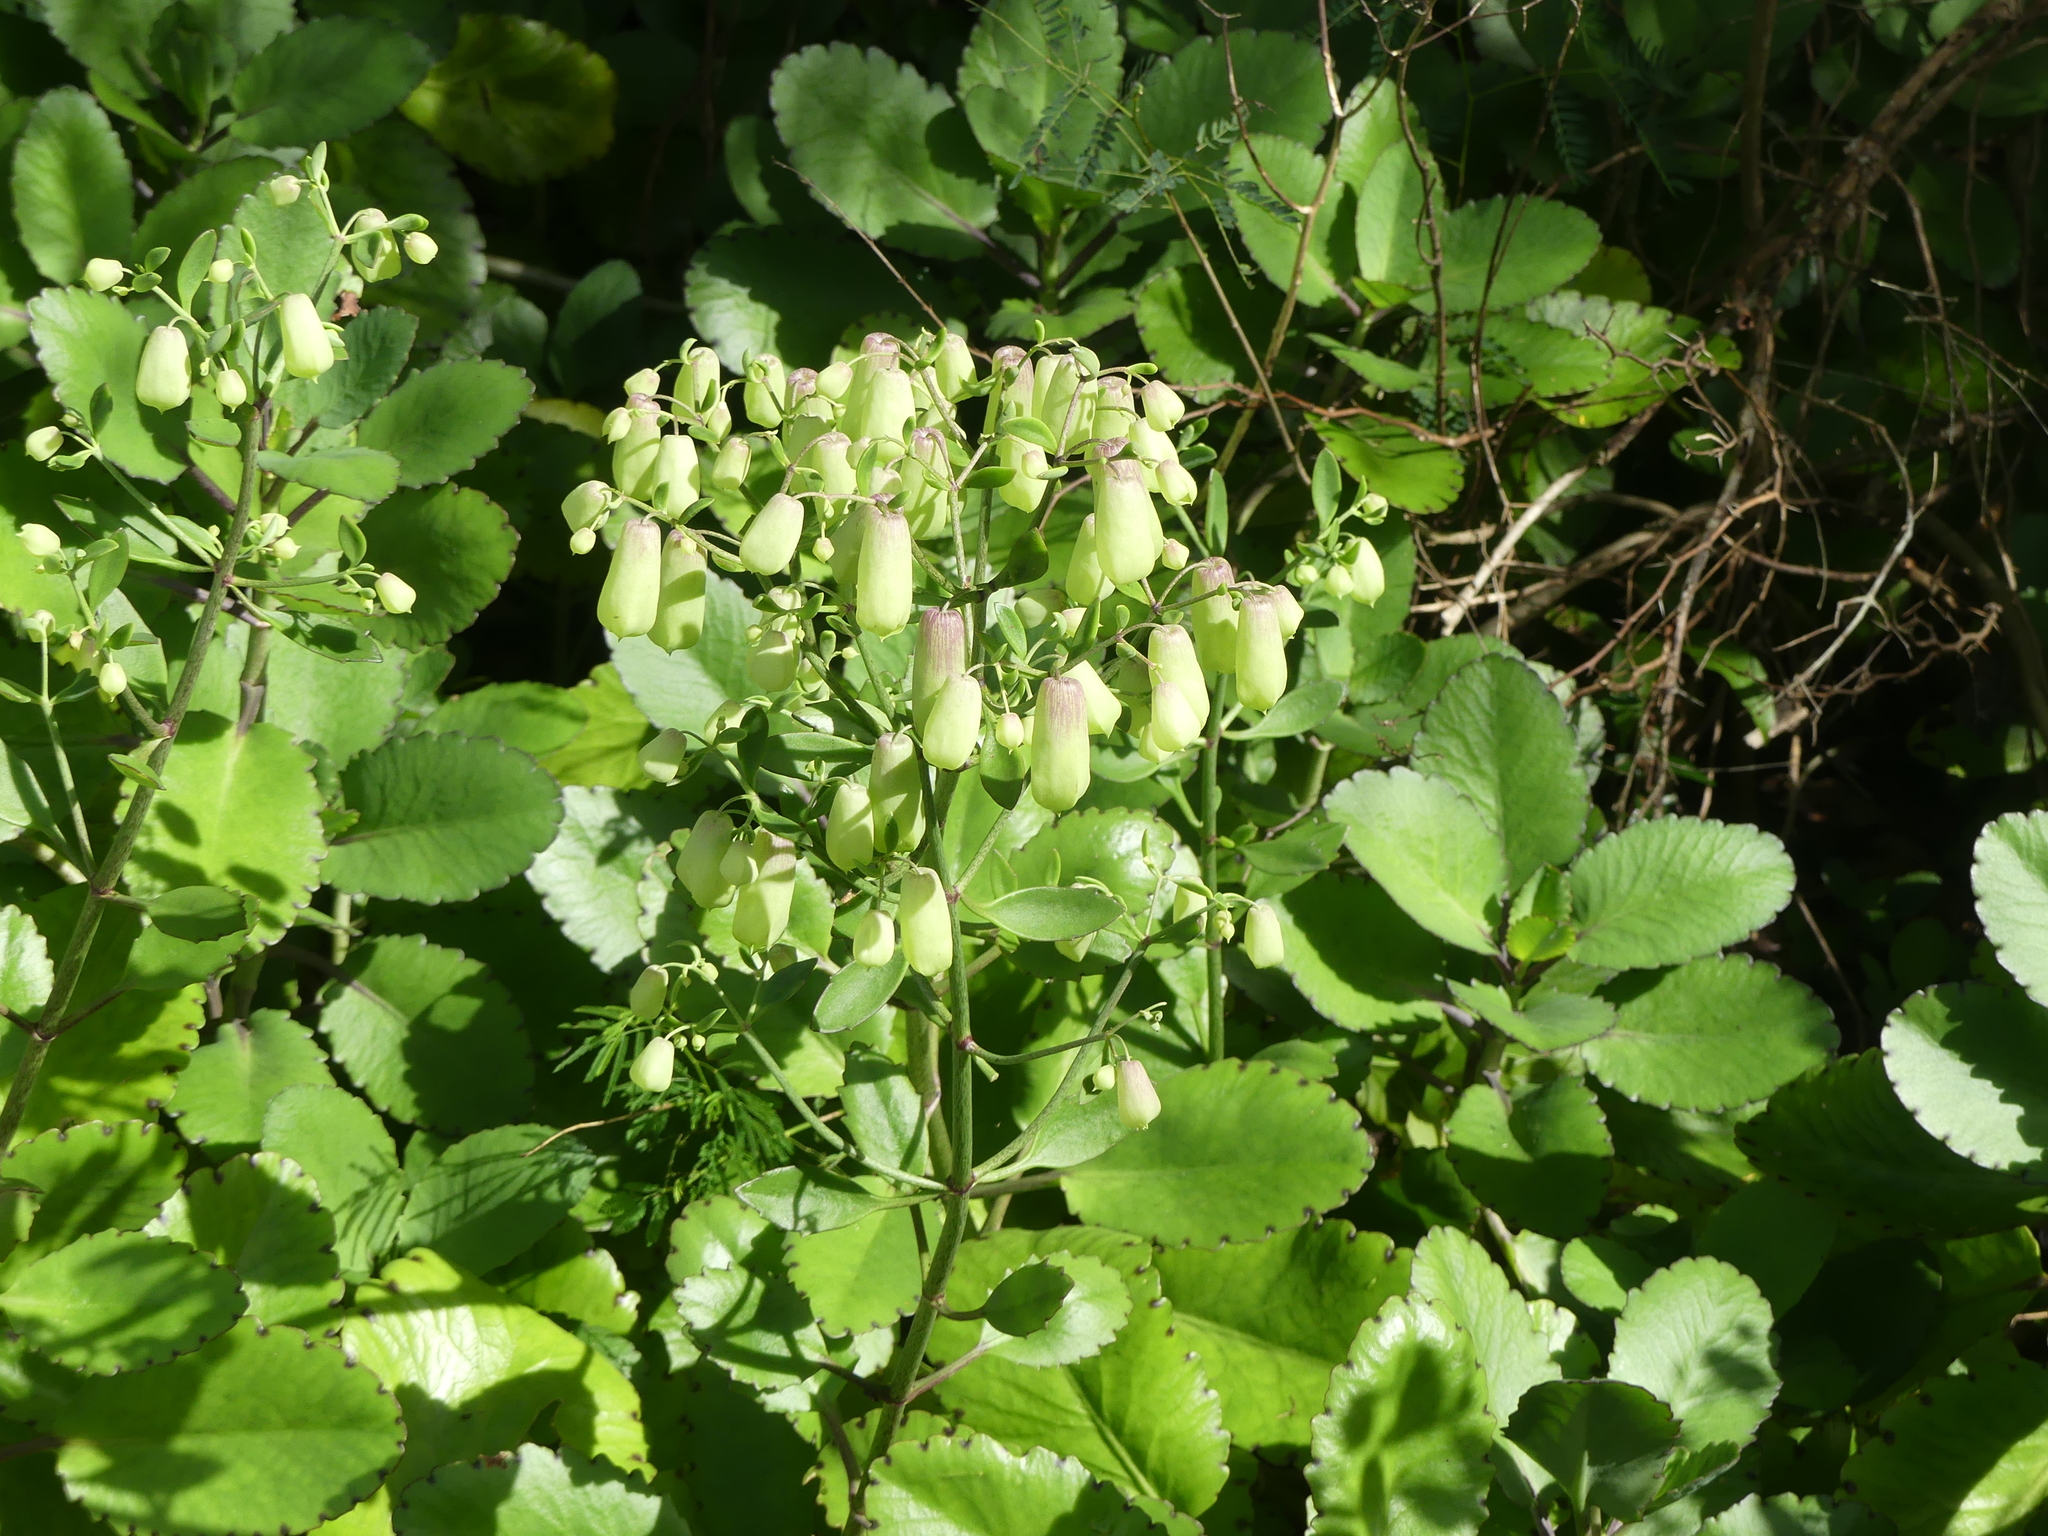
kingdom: Plantae
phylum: Tracheophyta
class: Magnoliopsida
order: Saxifragales
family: Crassulaceae
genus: Kalanchoe
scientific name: Kalanchoe pinnata
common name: Cathedral bells
